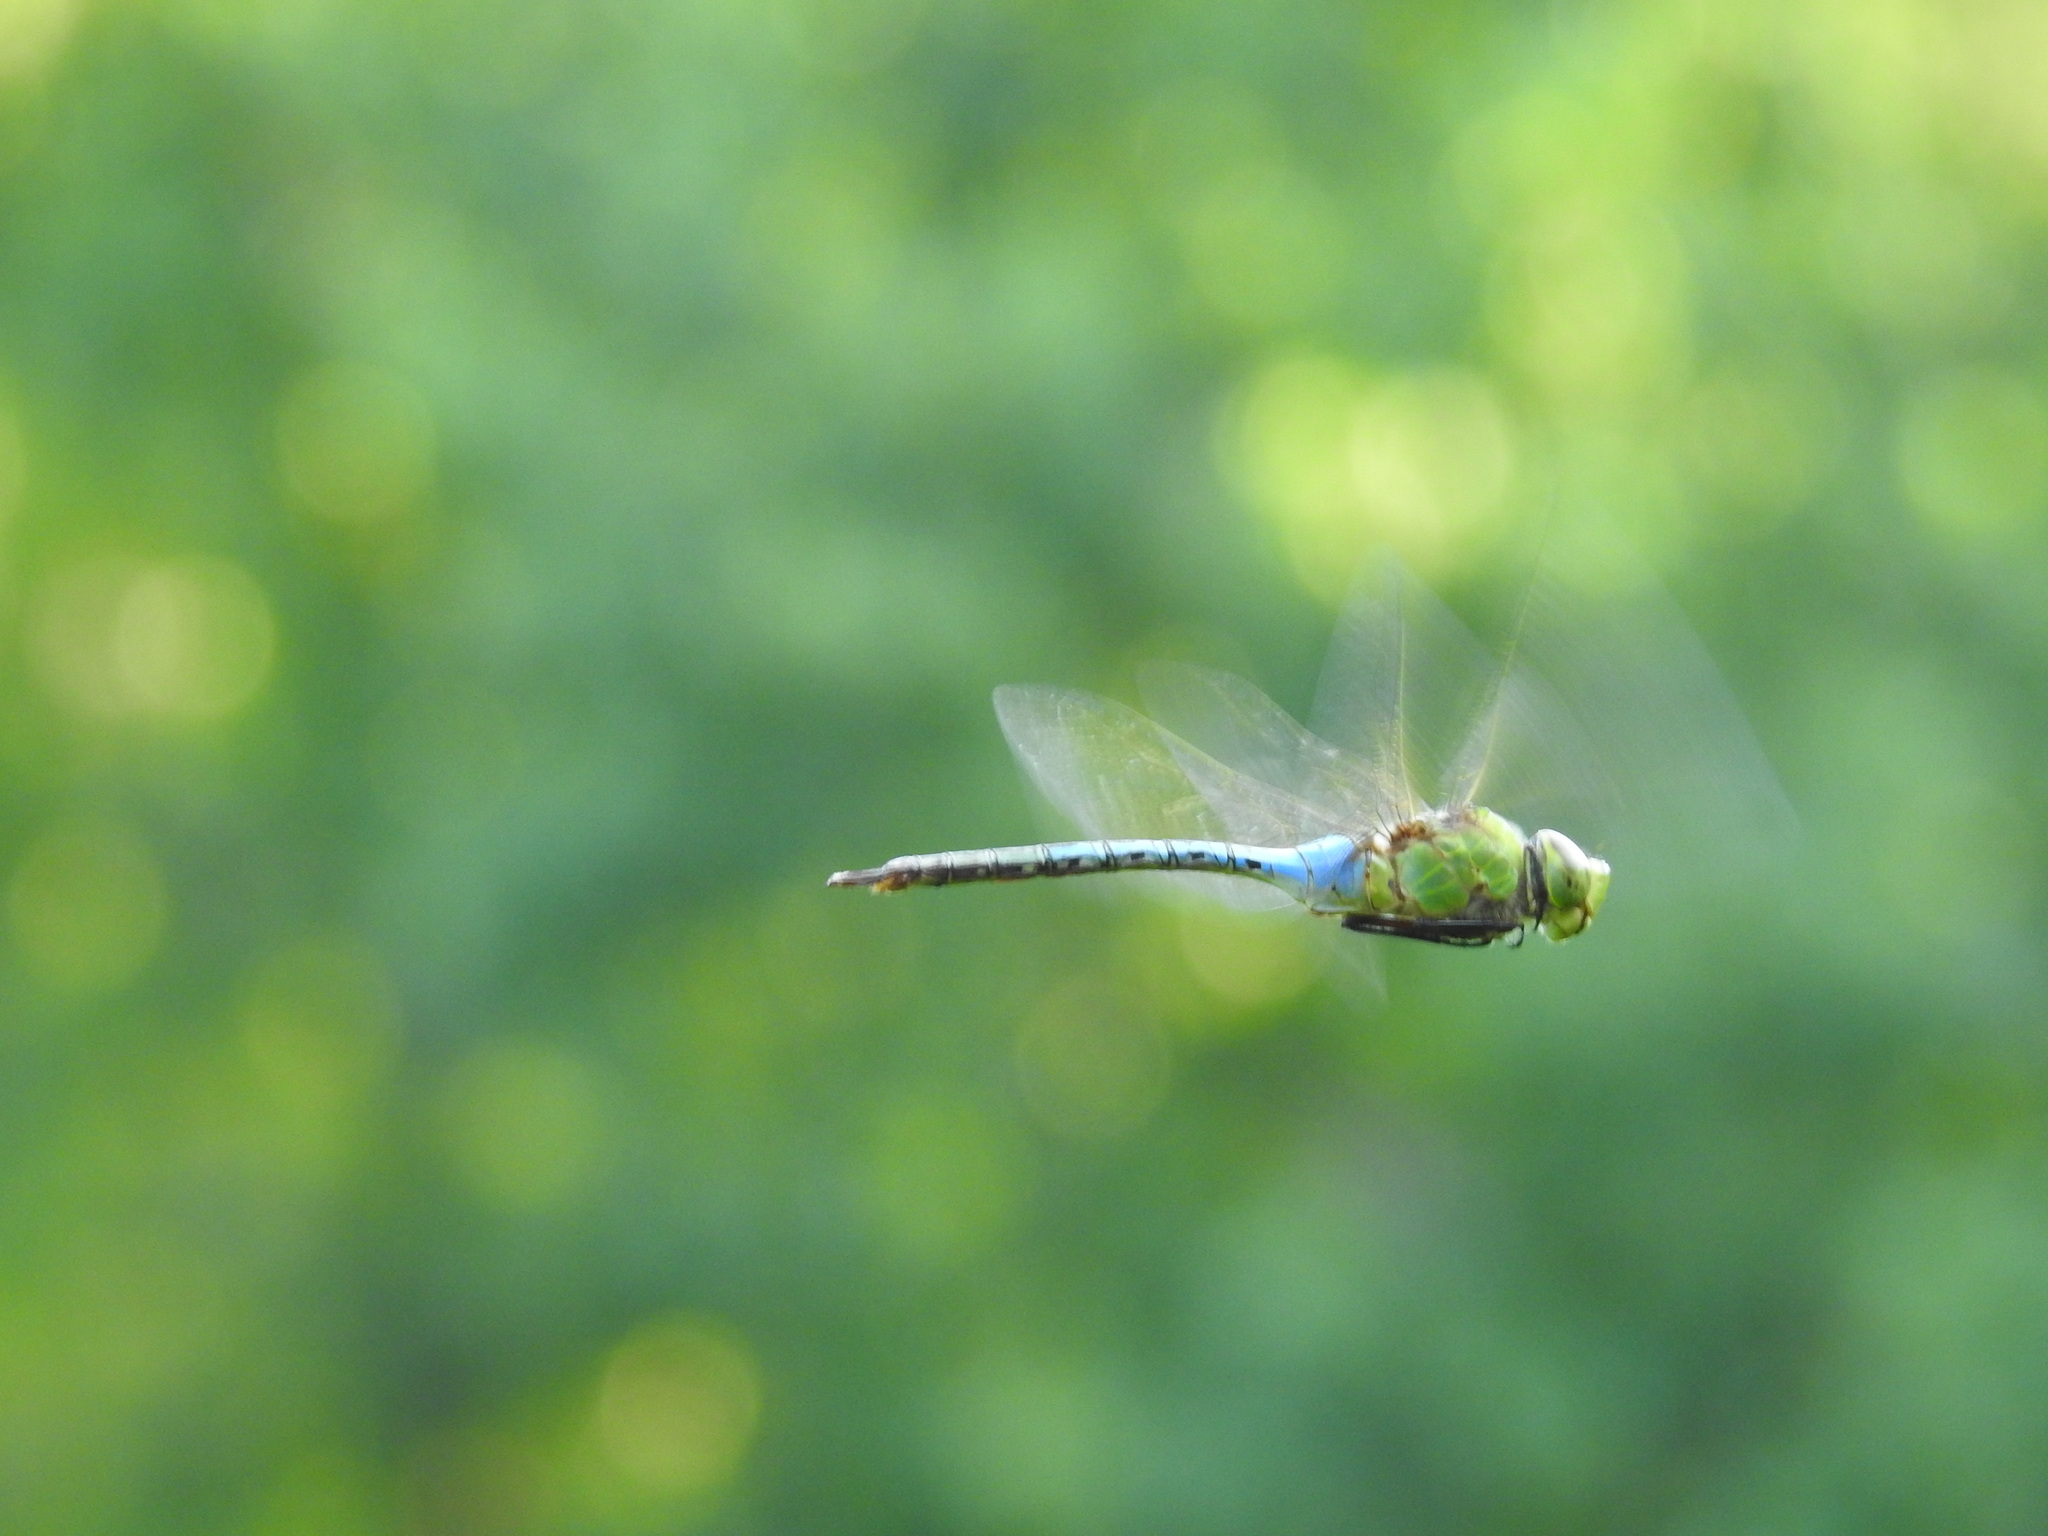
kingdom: Animalia
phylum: Arthropoda
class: Insecta
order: Odonata
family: Aeshnidae
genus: Anax
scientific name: Anax junius
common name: Common green darner
